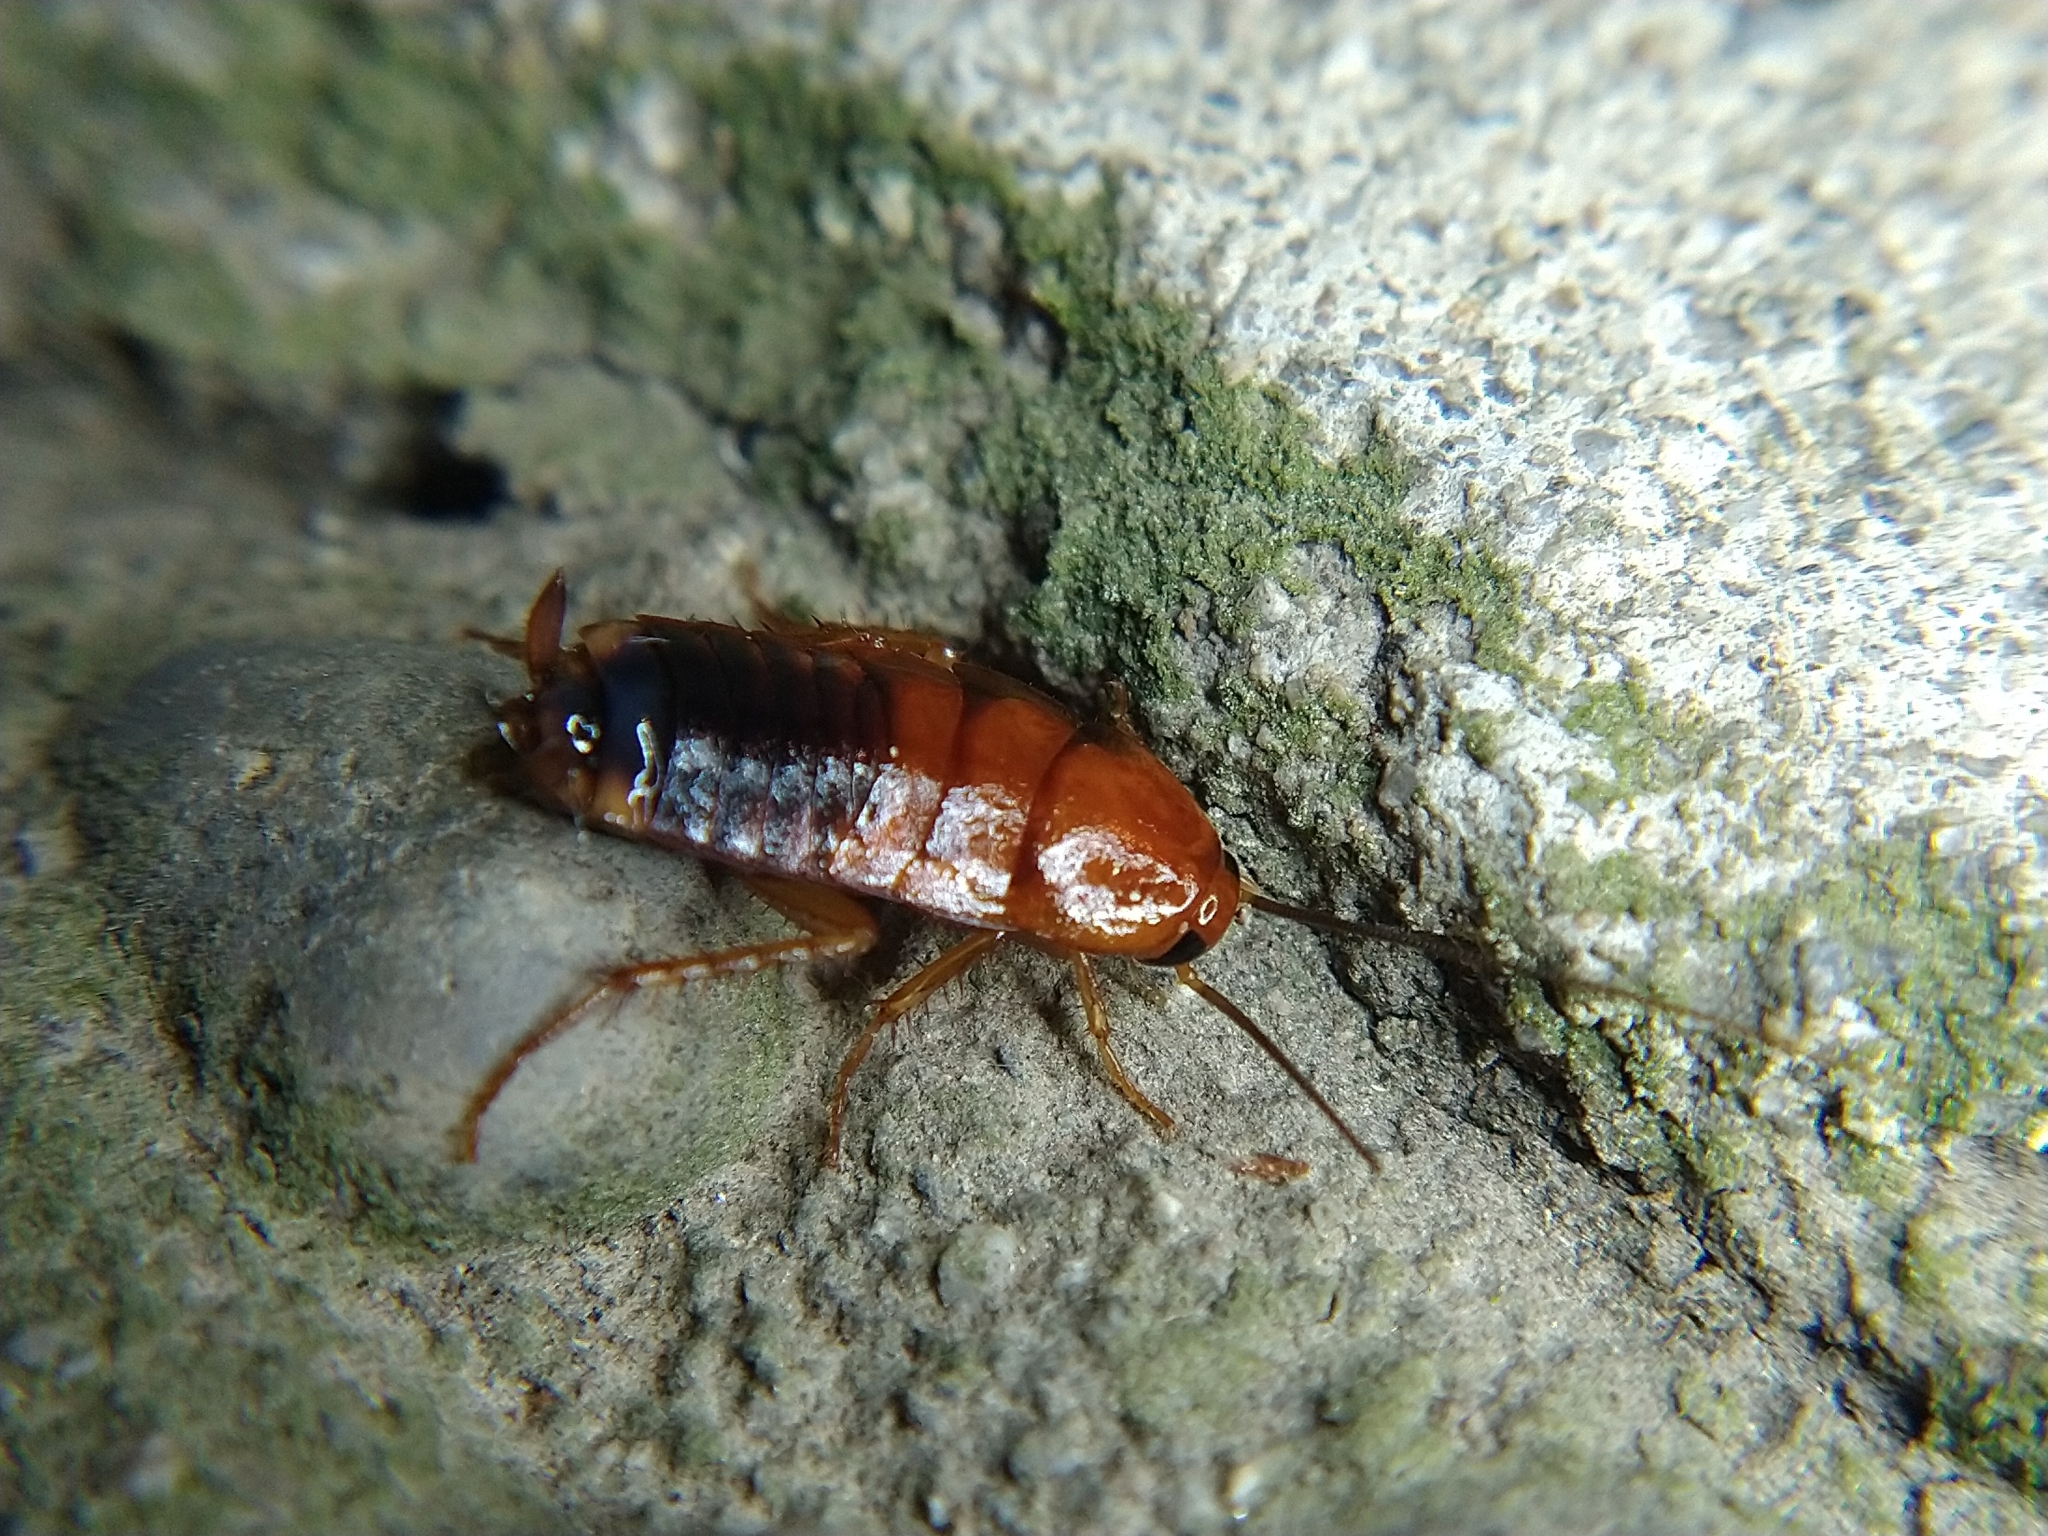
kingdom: Animalia
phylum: Arthropoda
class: Insecta
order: Blattodea
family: Blattidae
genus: Periplaneta
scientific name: Periplaneta lateralis
